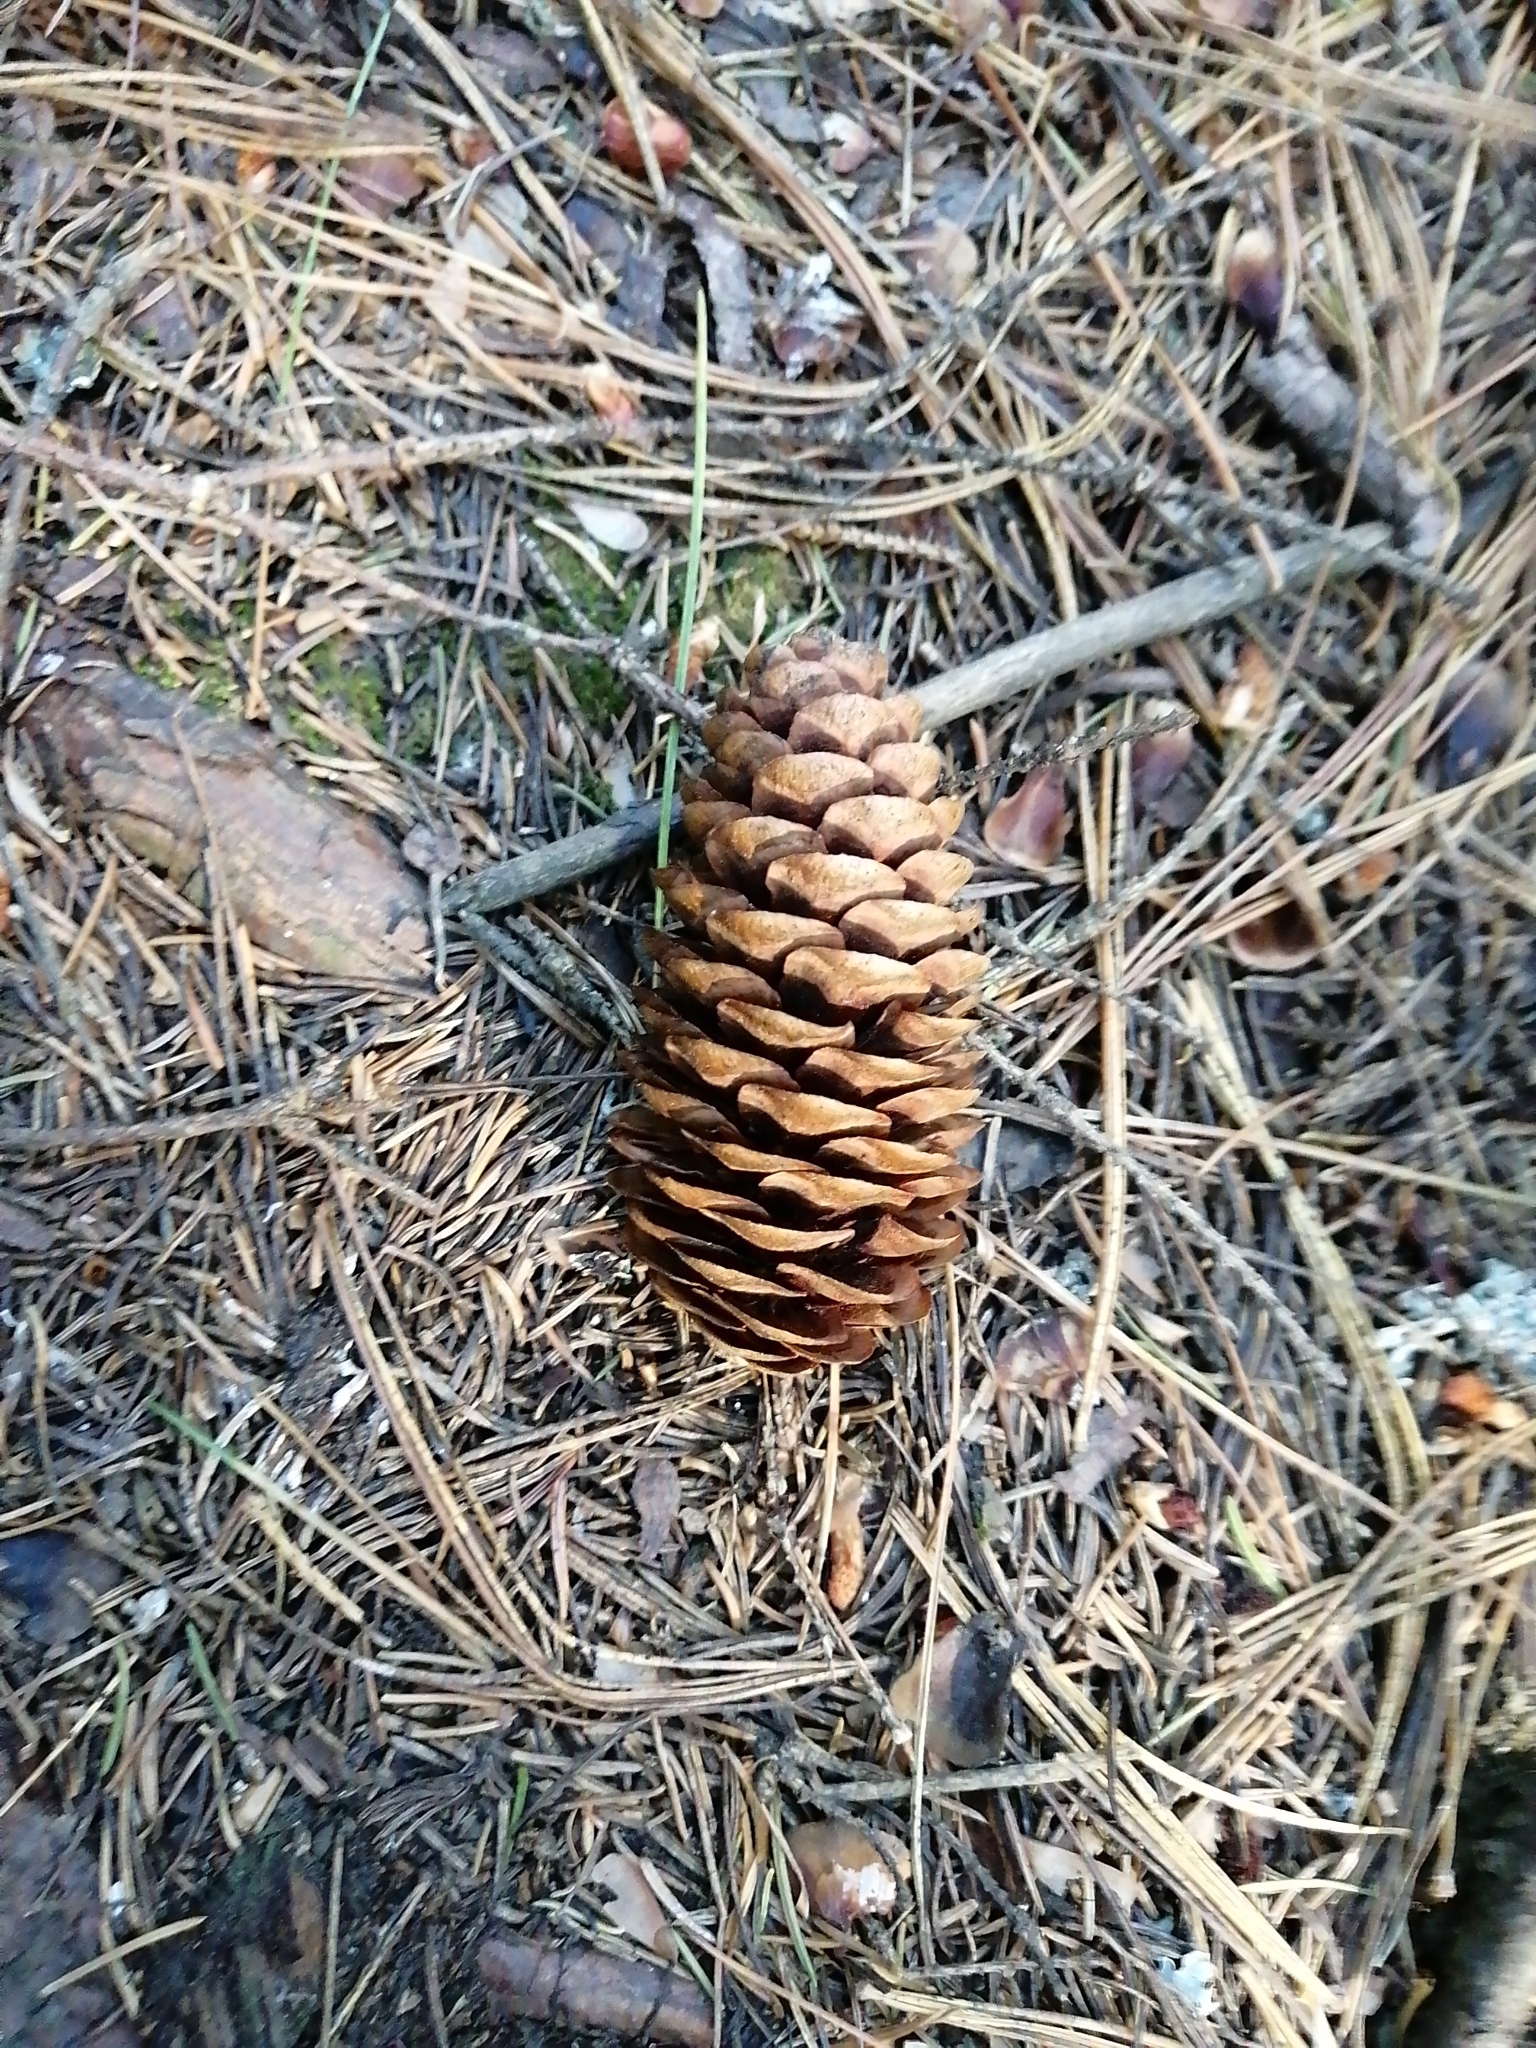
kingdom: Plantae
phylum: Tracheophyta
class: Pinopsida
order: Pinales
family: Pinaceae
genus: Picea
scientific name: Picea obovata
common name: Siberian spruce
